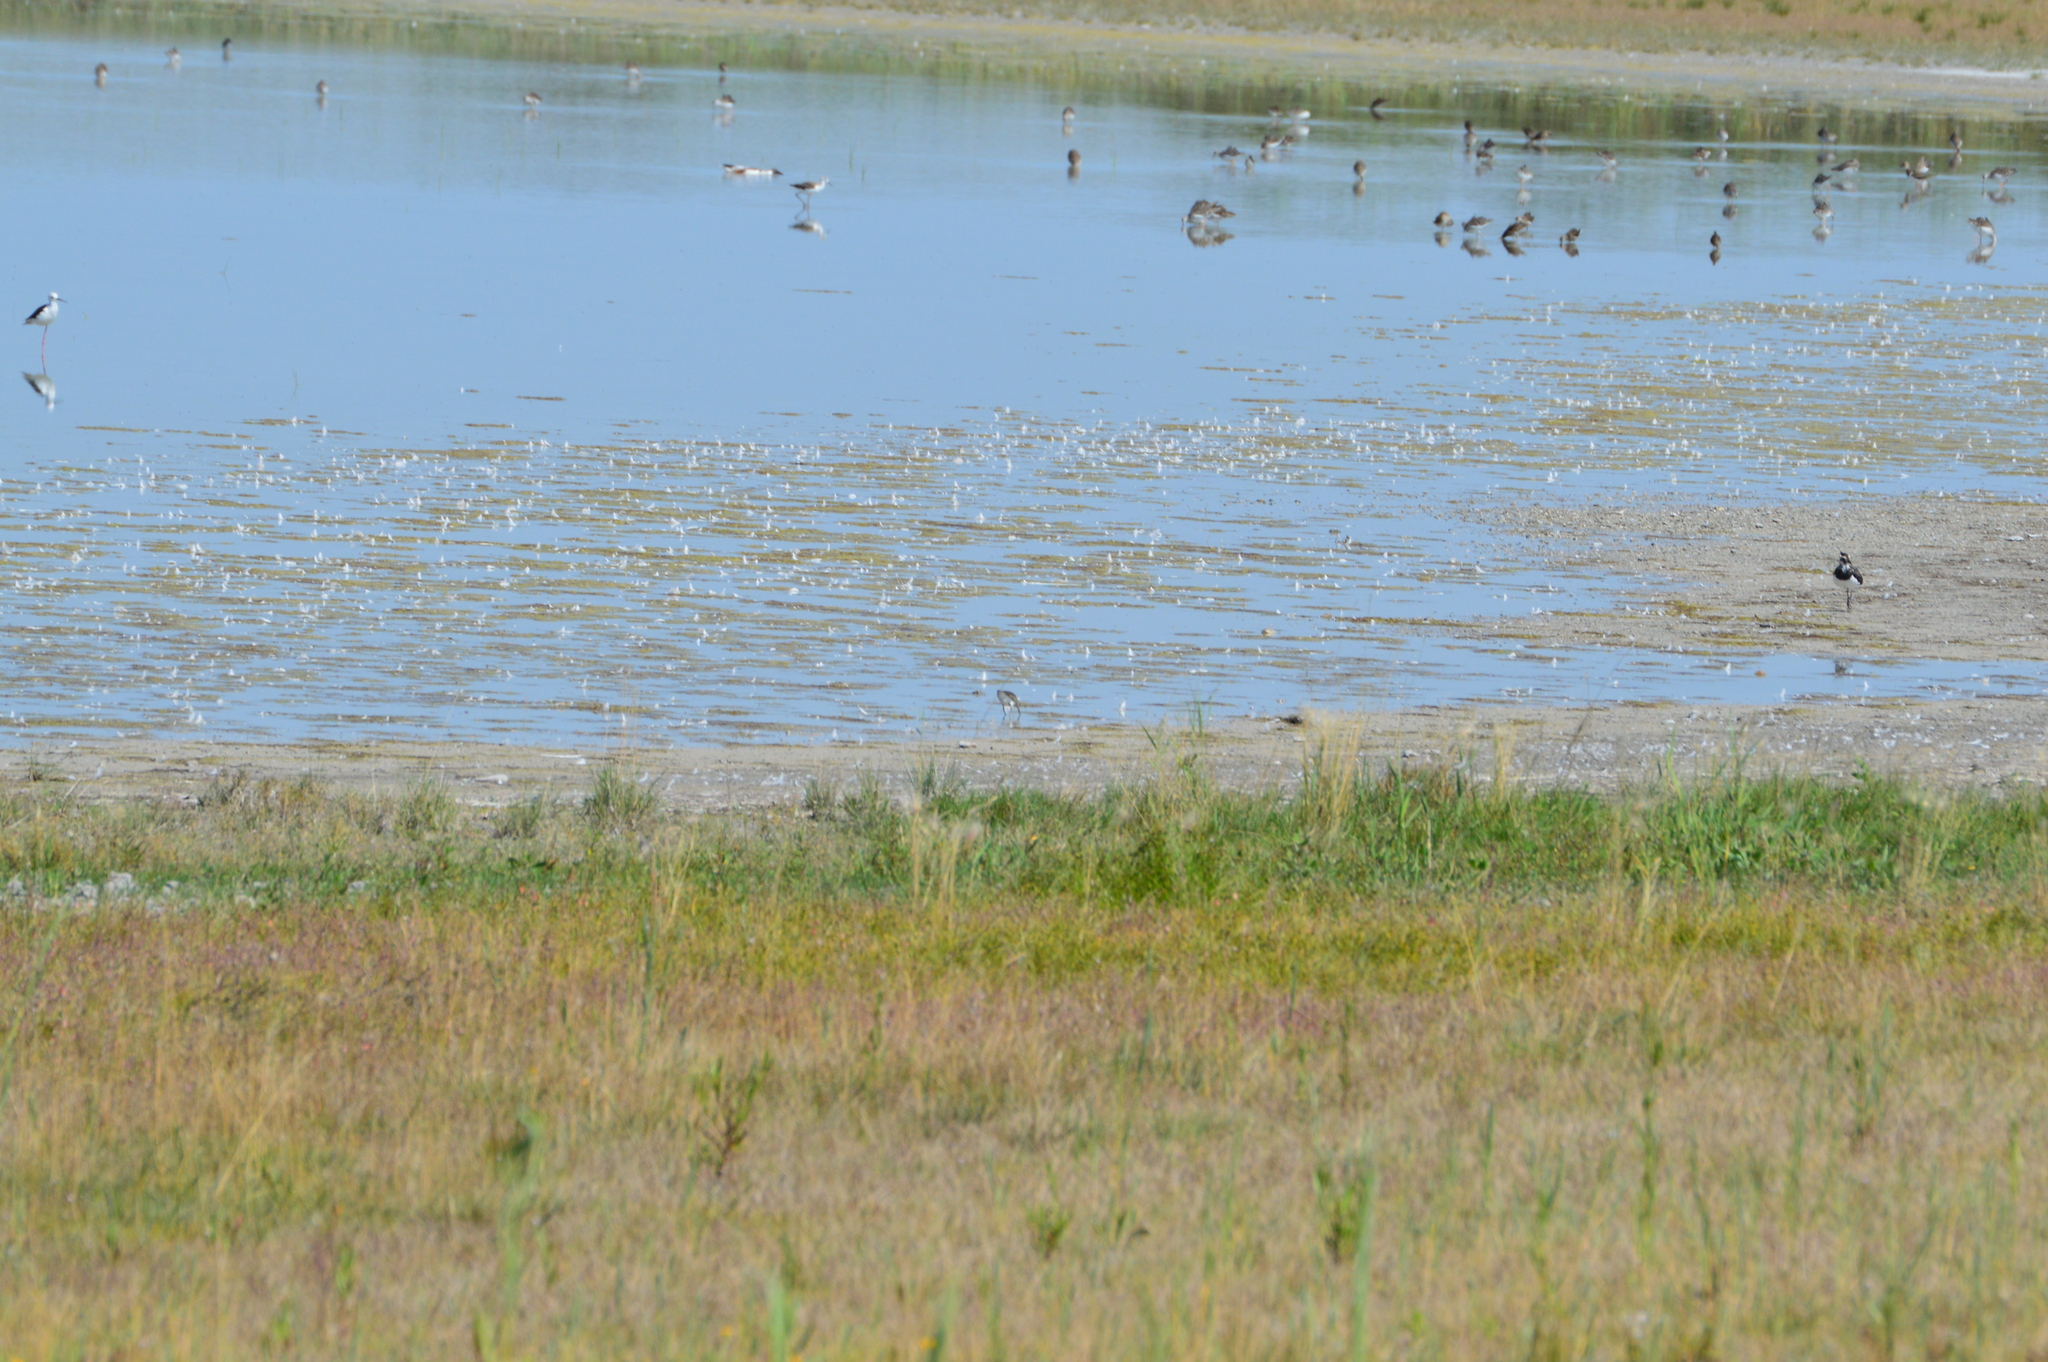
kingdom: Animalia
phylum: Chordata
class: Aves
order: Charadriiformes
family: Charadriidae
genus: Vanellus
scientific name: Vanellus vanellus
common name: Northern lapwing
